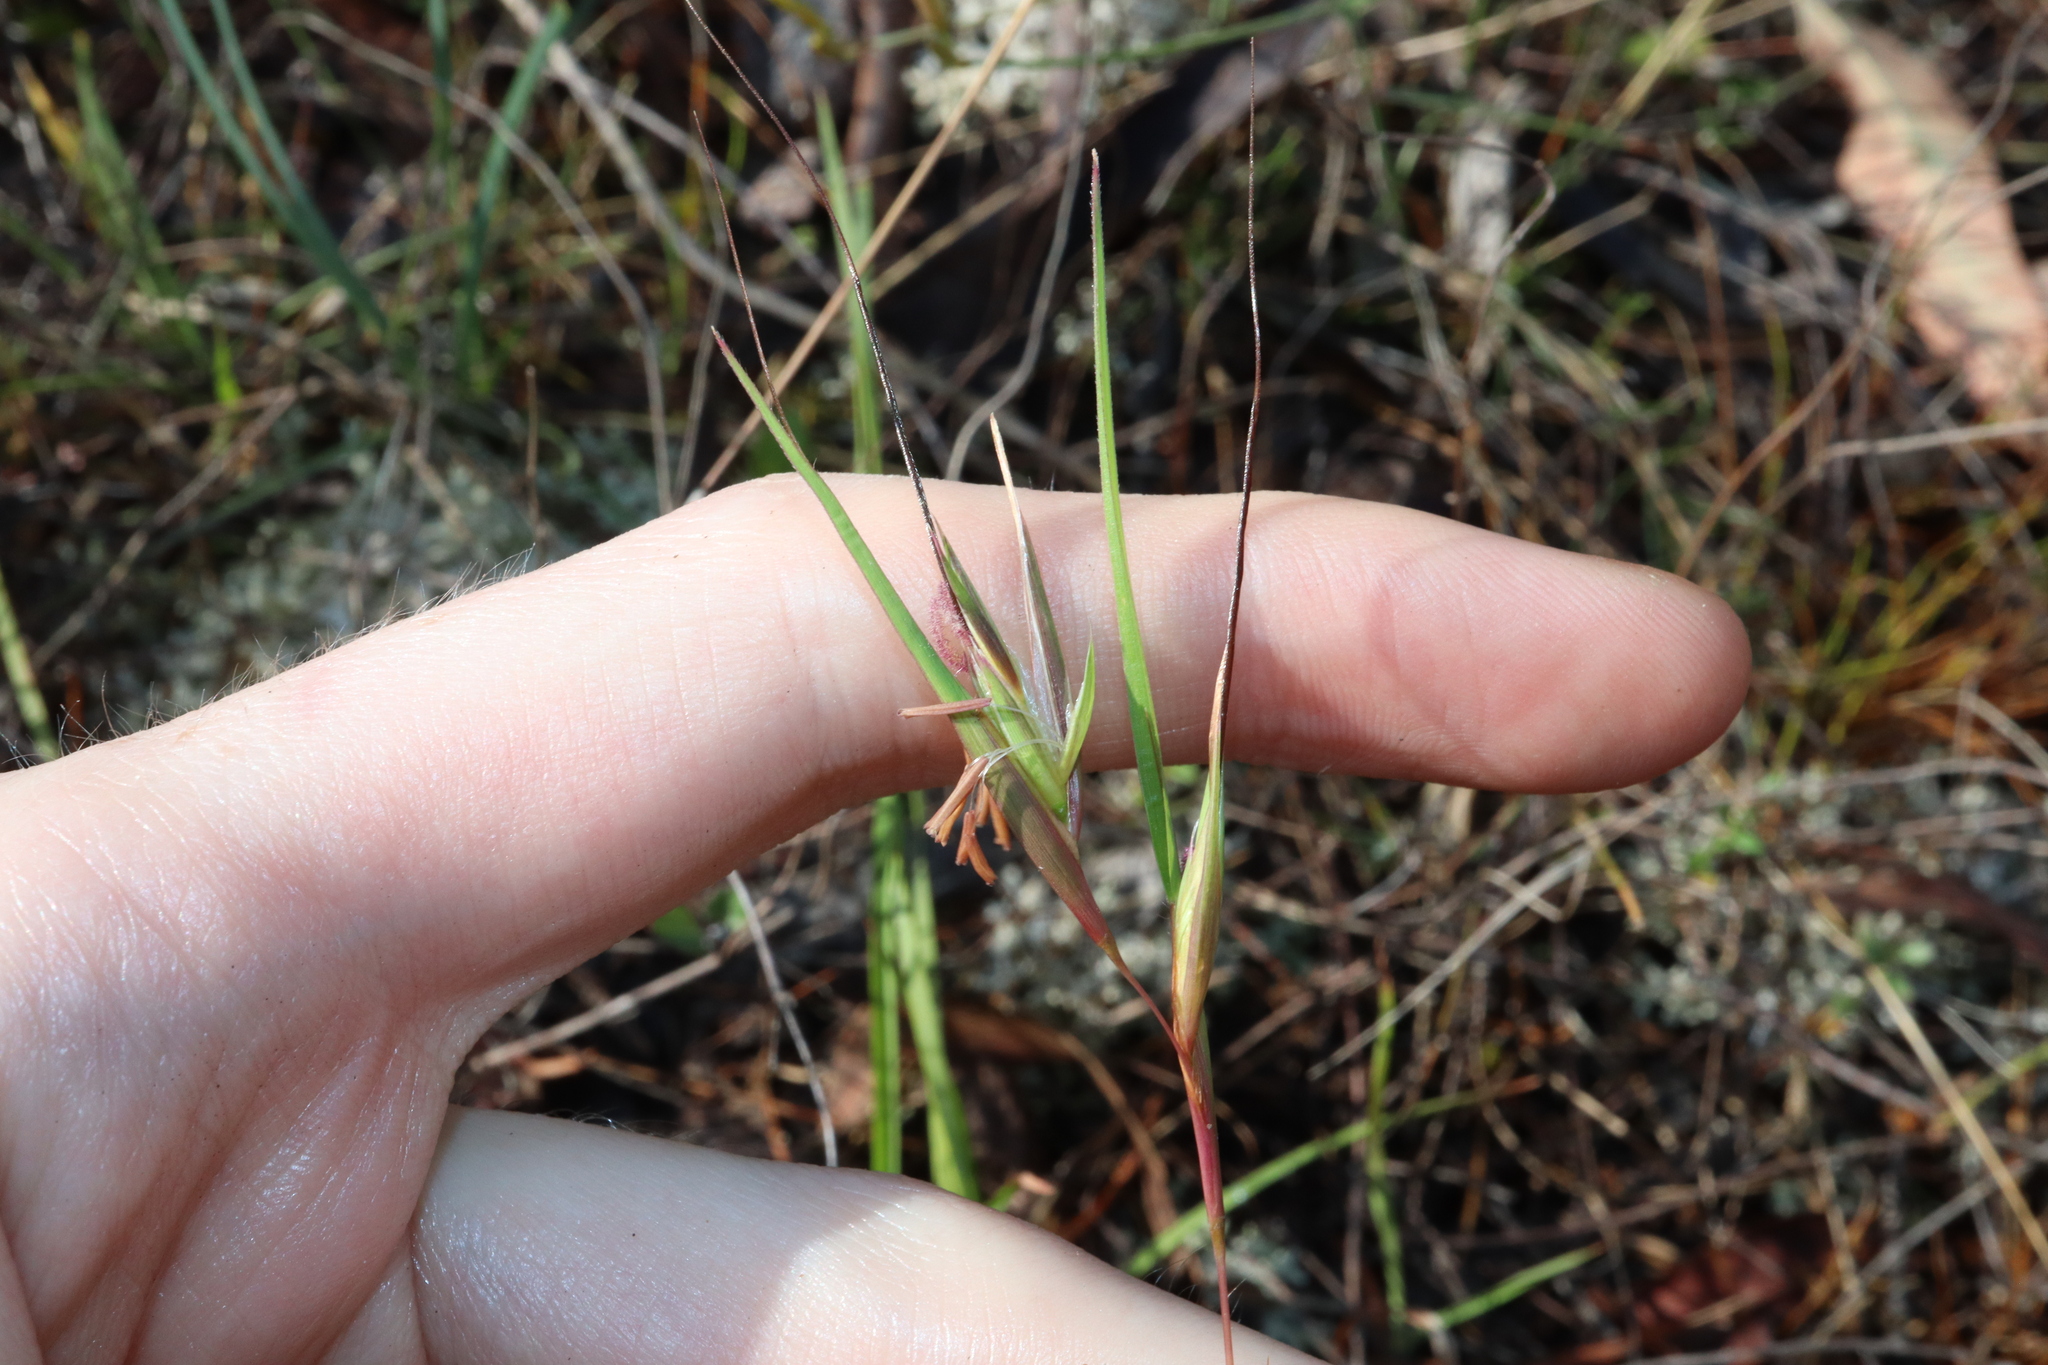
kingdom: Plantae
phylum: Tracheophyta
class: Liliopsida
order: Poales
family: Poaceae
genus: Themeda
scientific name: Themeda triandra
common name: Kangaroo grass
